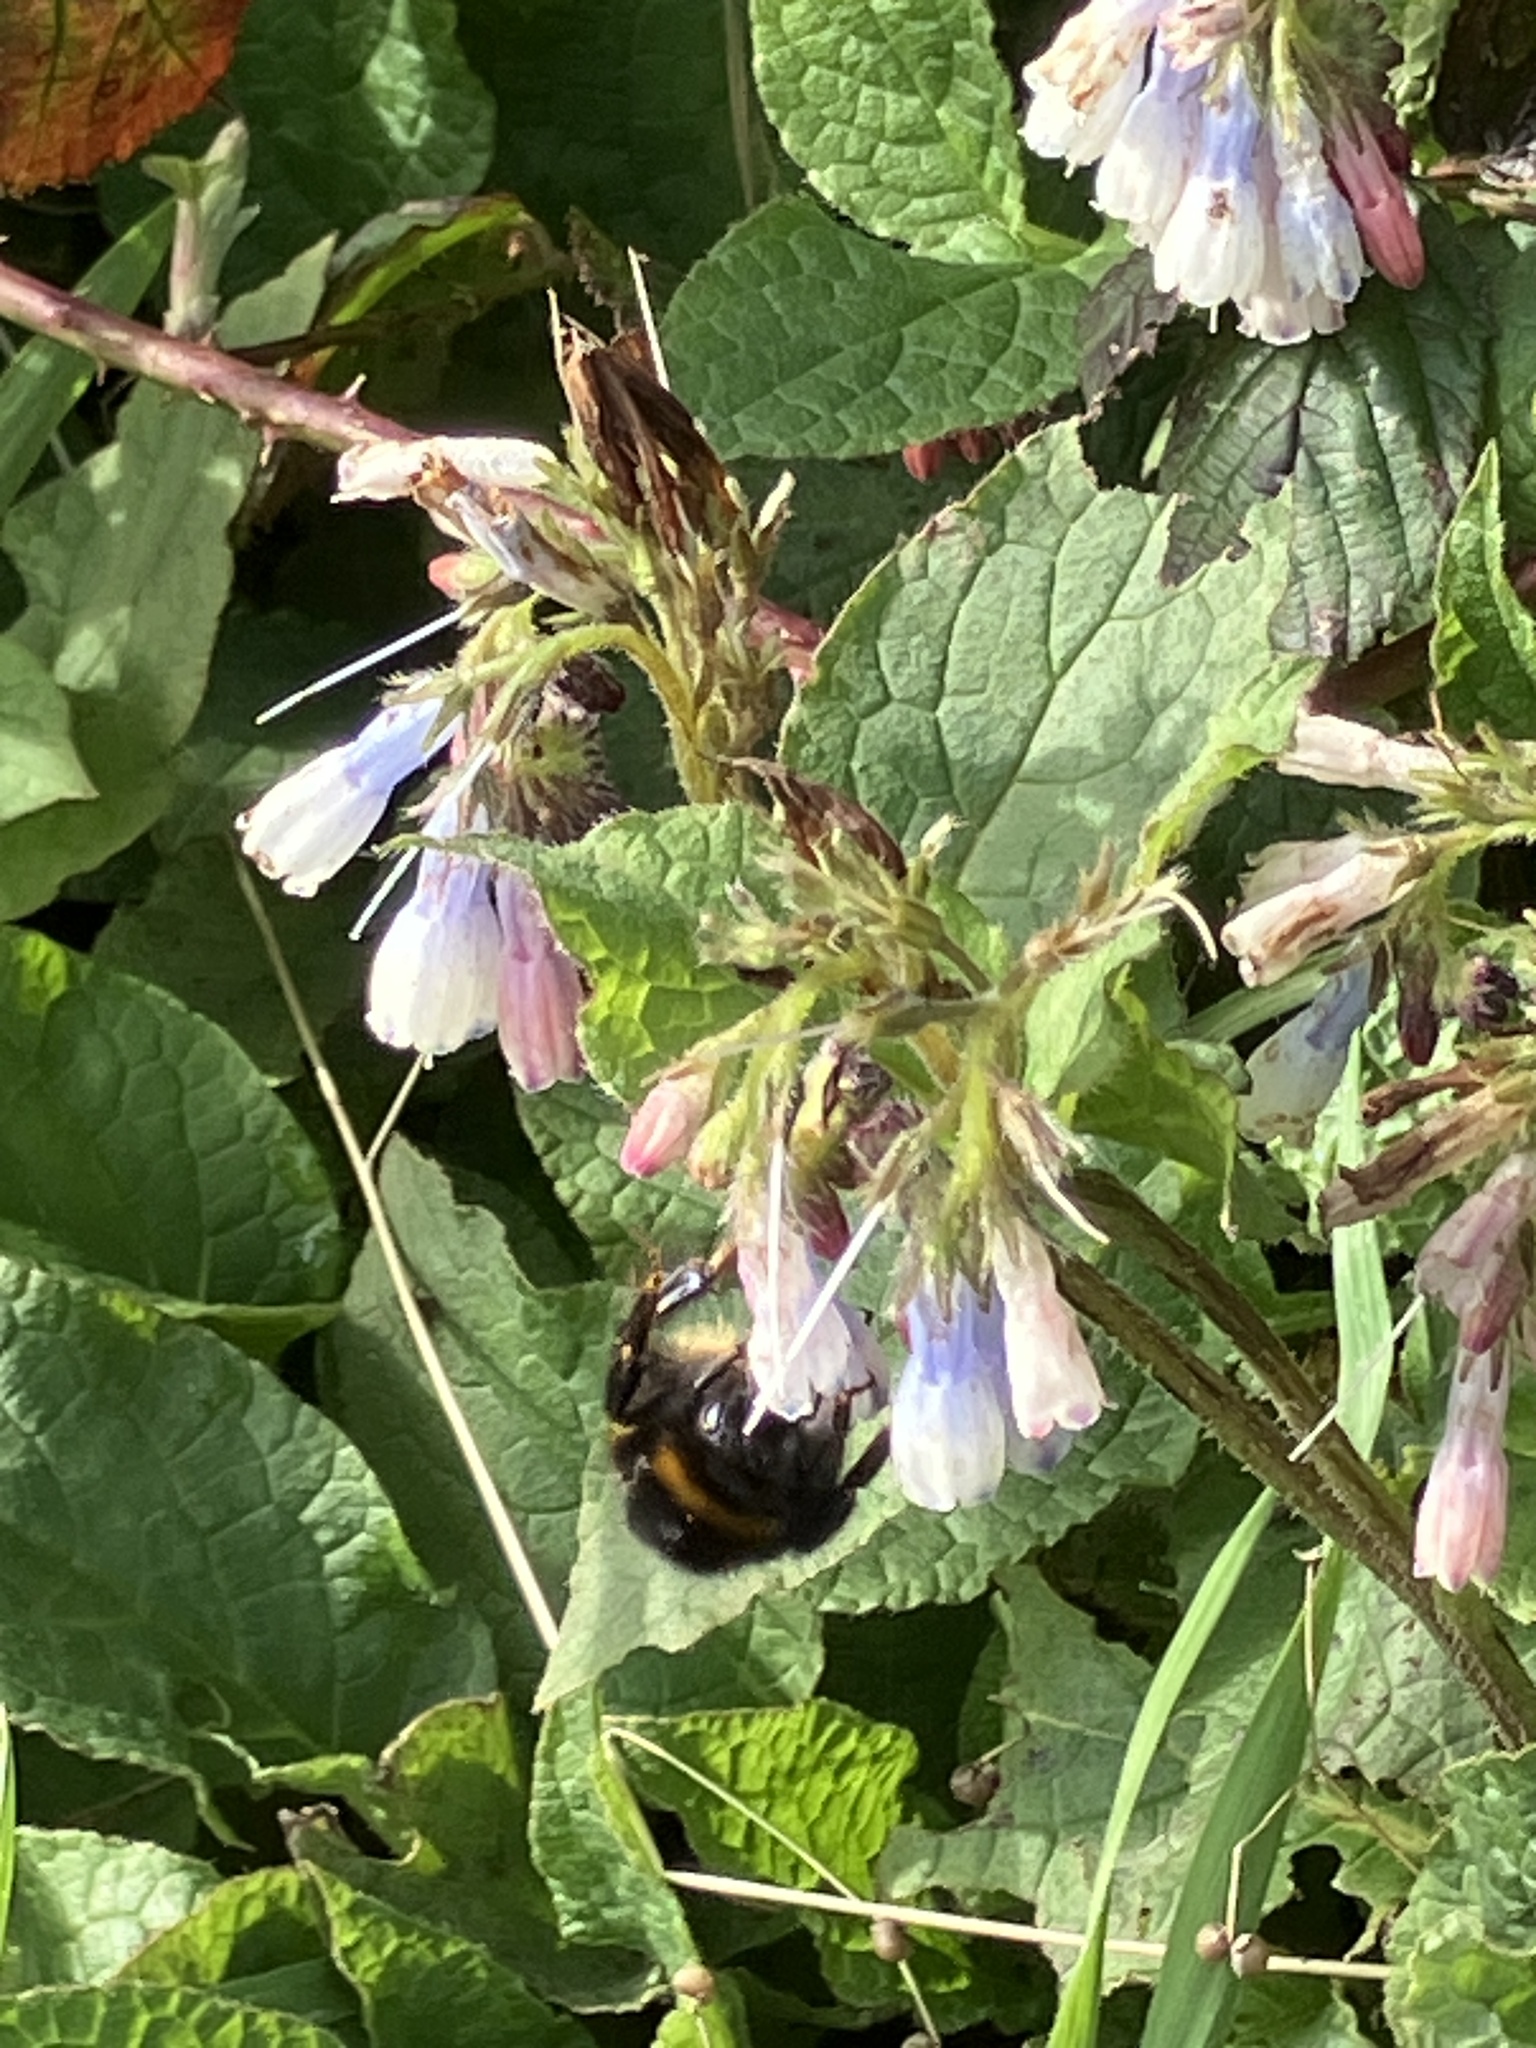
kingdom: Plantae
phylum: Tracheophyta
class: Magnoliopsida
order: Boraginales
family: Boraginaceae
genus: Symphytum
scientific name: Symphytum hidcotense
